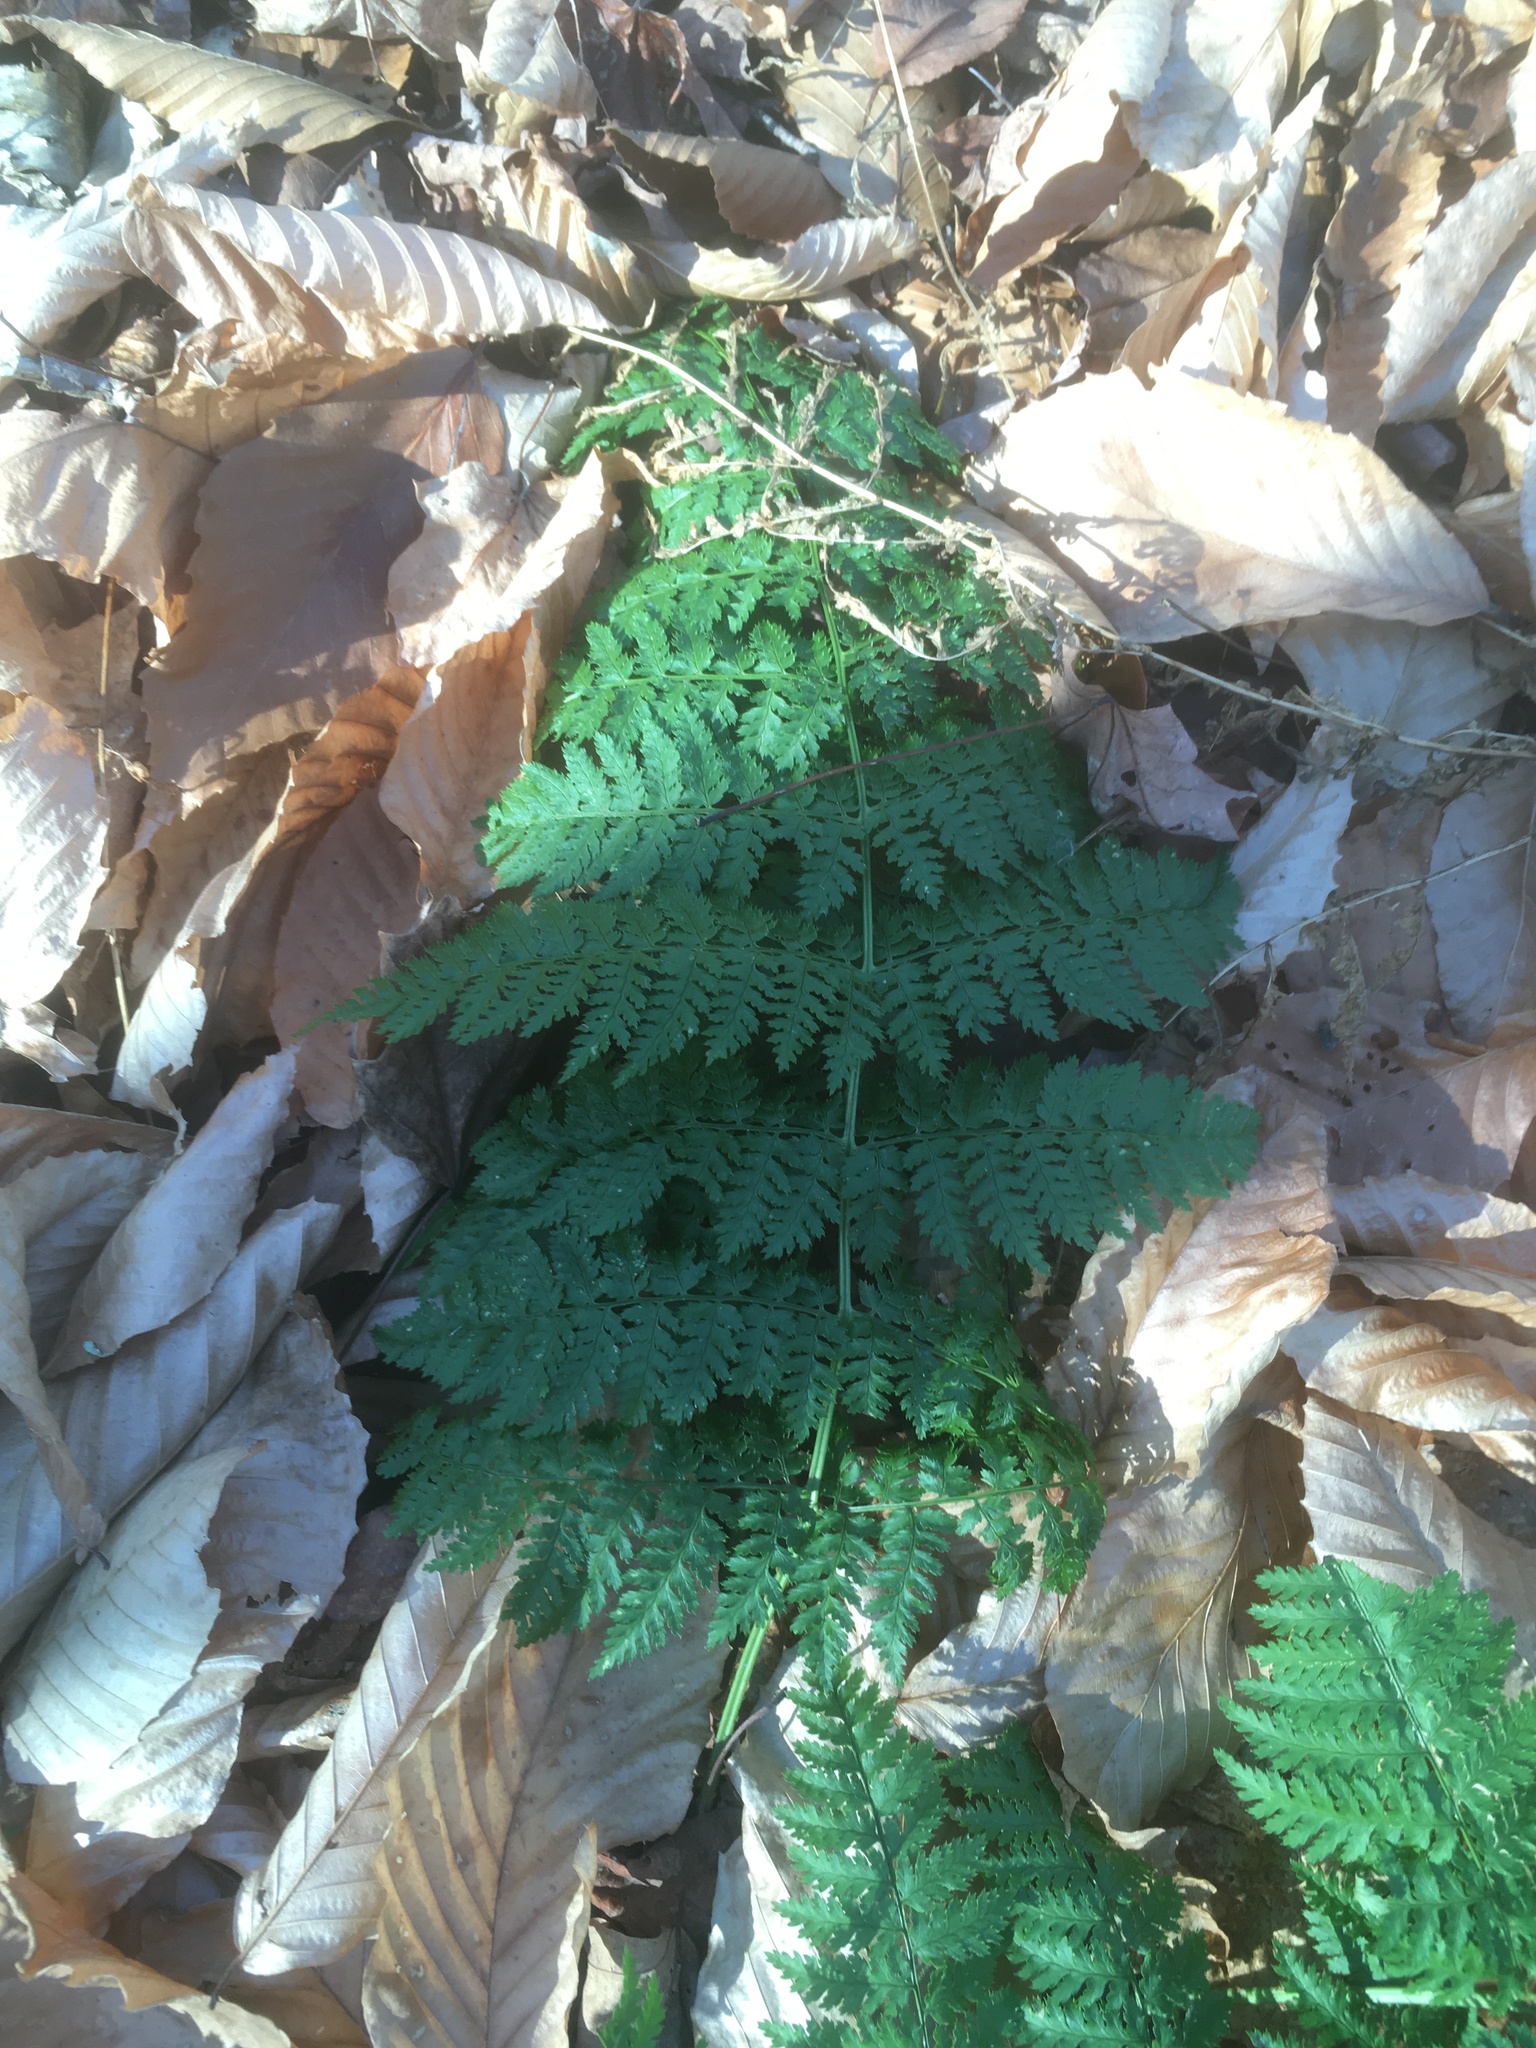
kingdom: Plantae
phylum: Tracheophyta
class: Polypodiopsida
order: Polypodiales
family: Dryopteridaceae
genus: Dryopteris
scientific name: Dryopteris intermedia
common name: Evergreen wood fern
